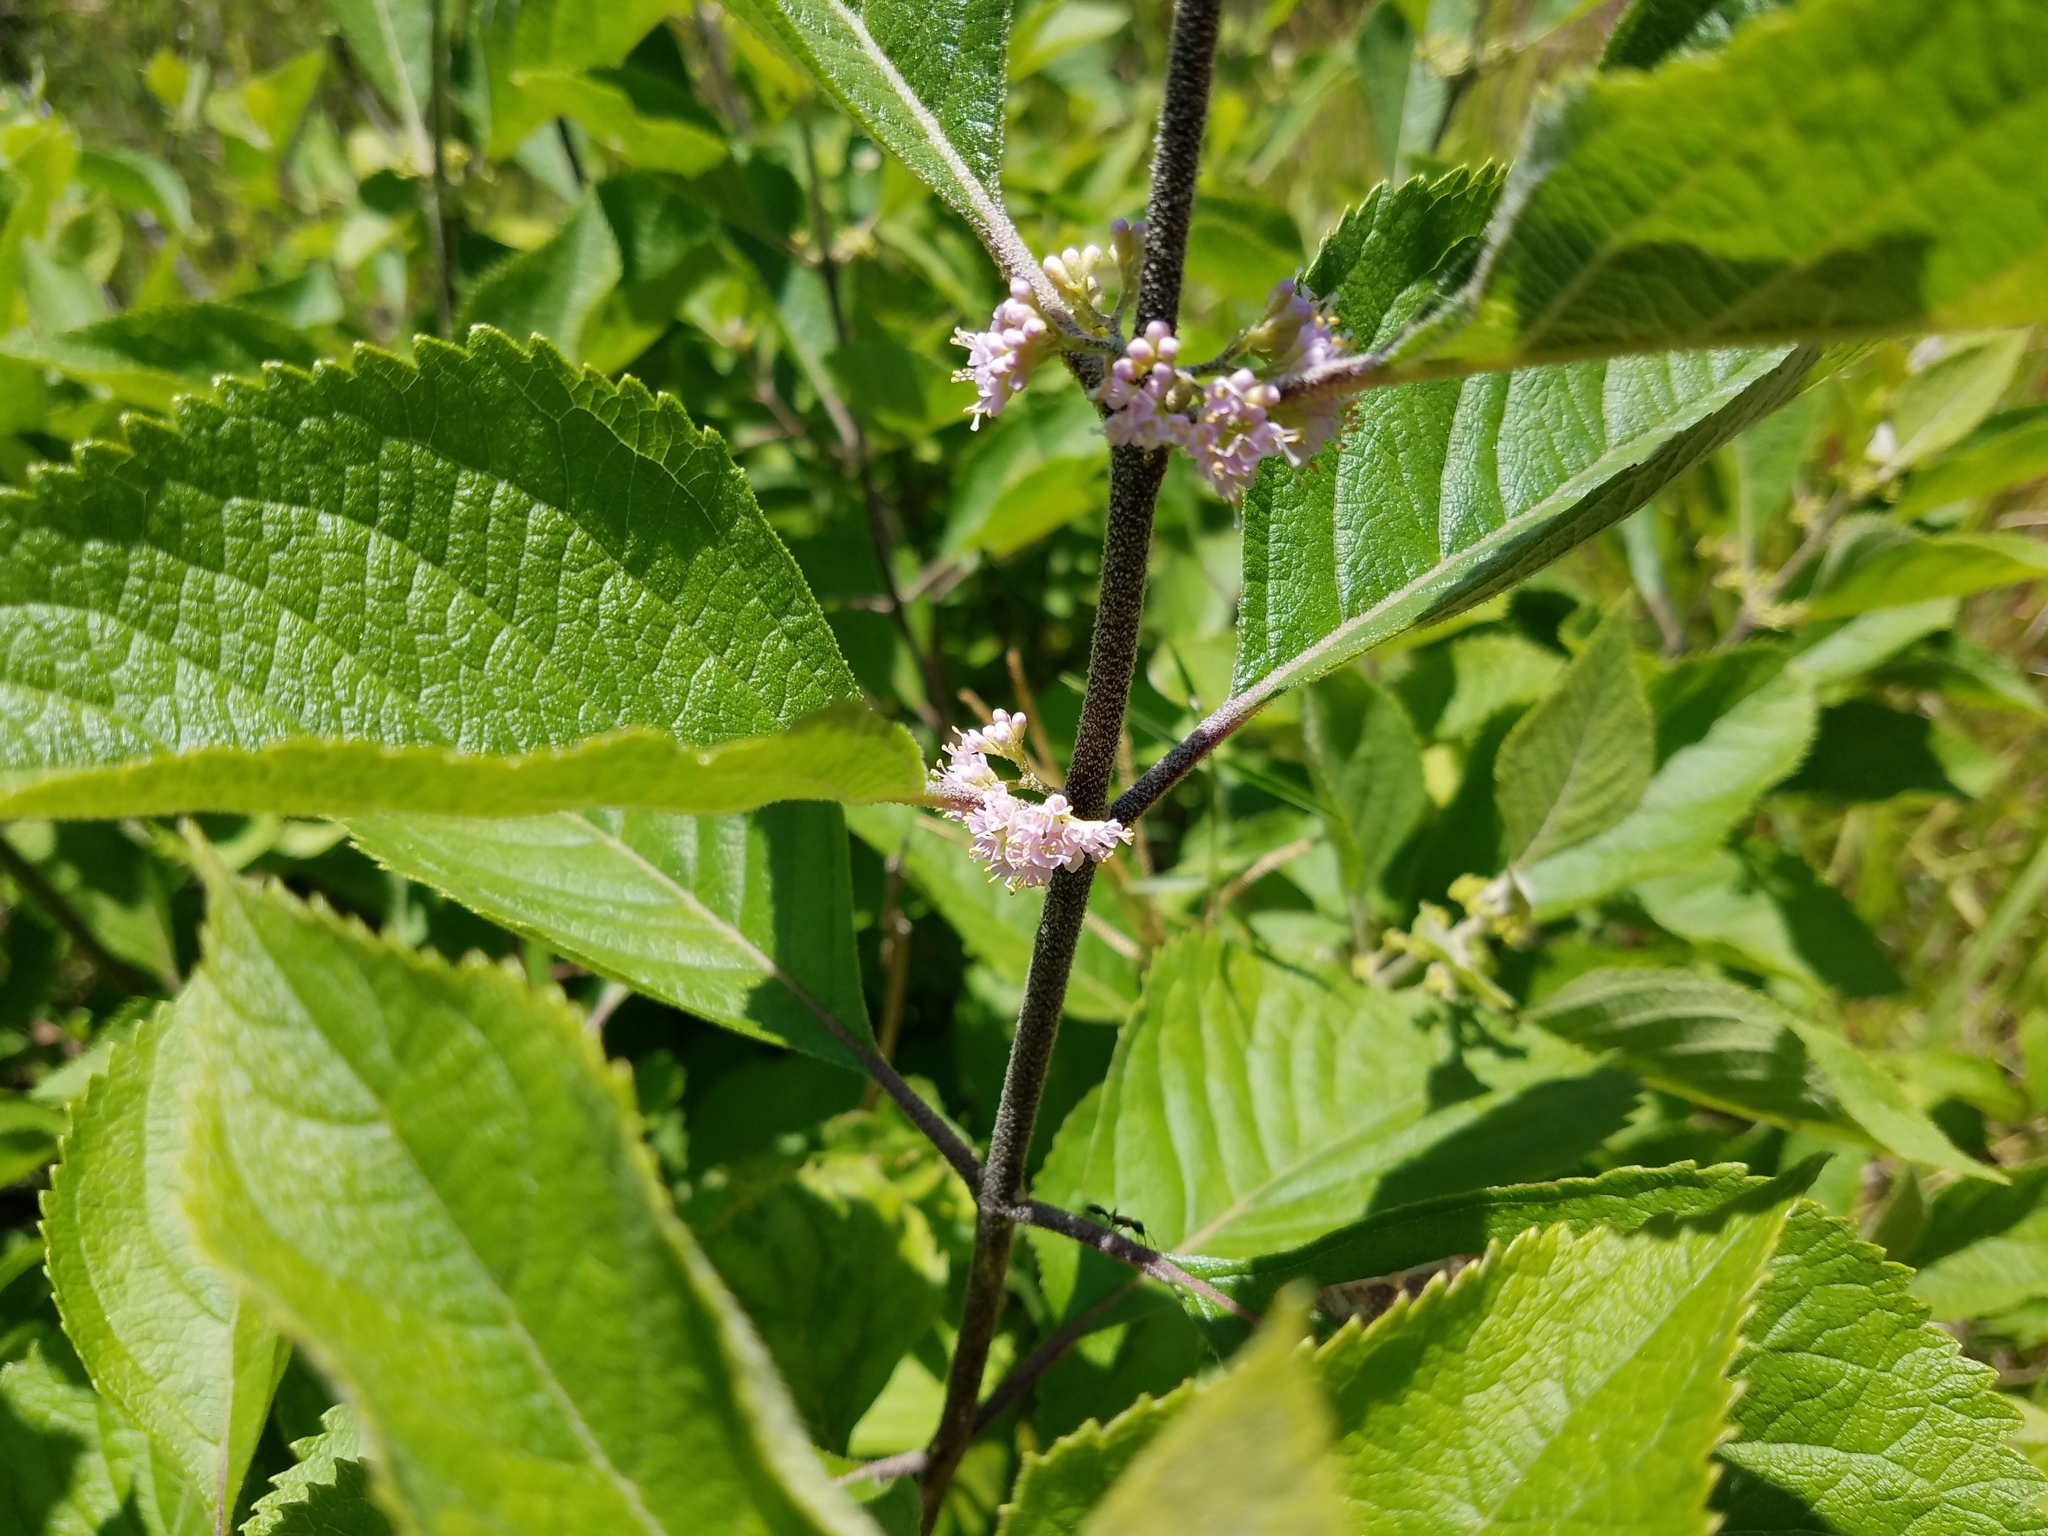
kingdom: Plantae
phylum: Tracheophyta
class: Magnoliopsida
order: Lamiales
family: Lamiaceae
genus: Callicarpa
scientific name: Callicarpa americana
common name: American beautyberry
